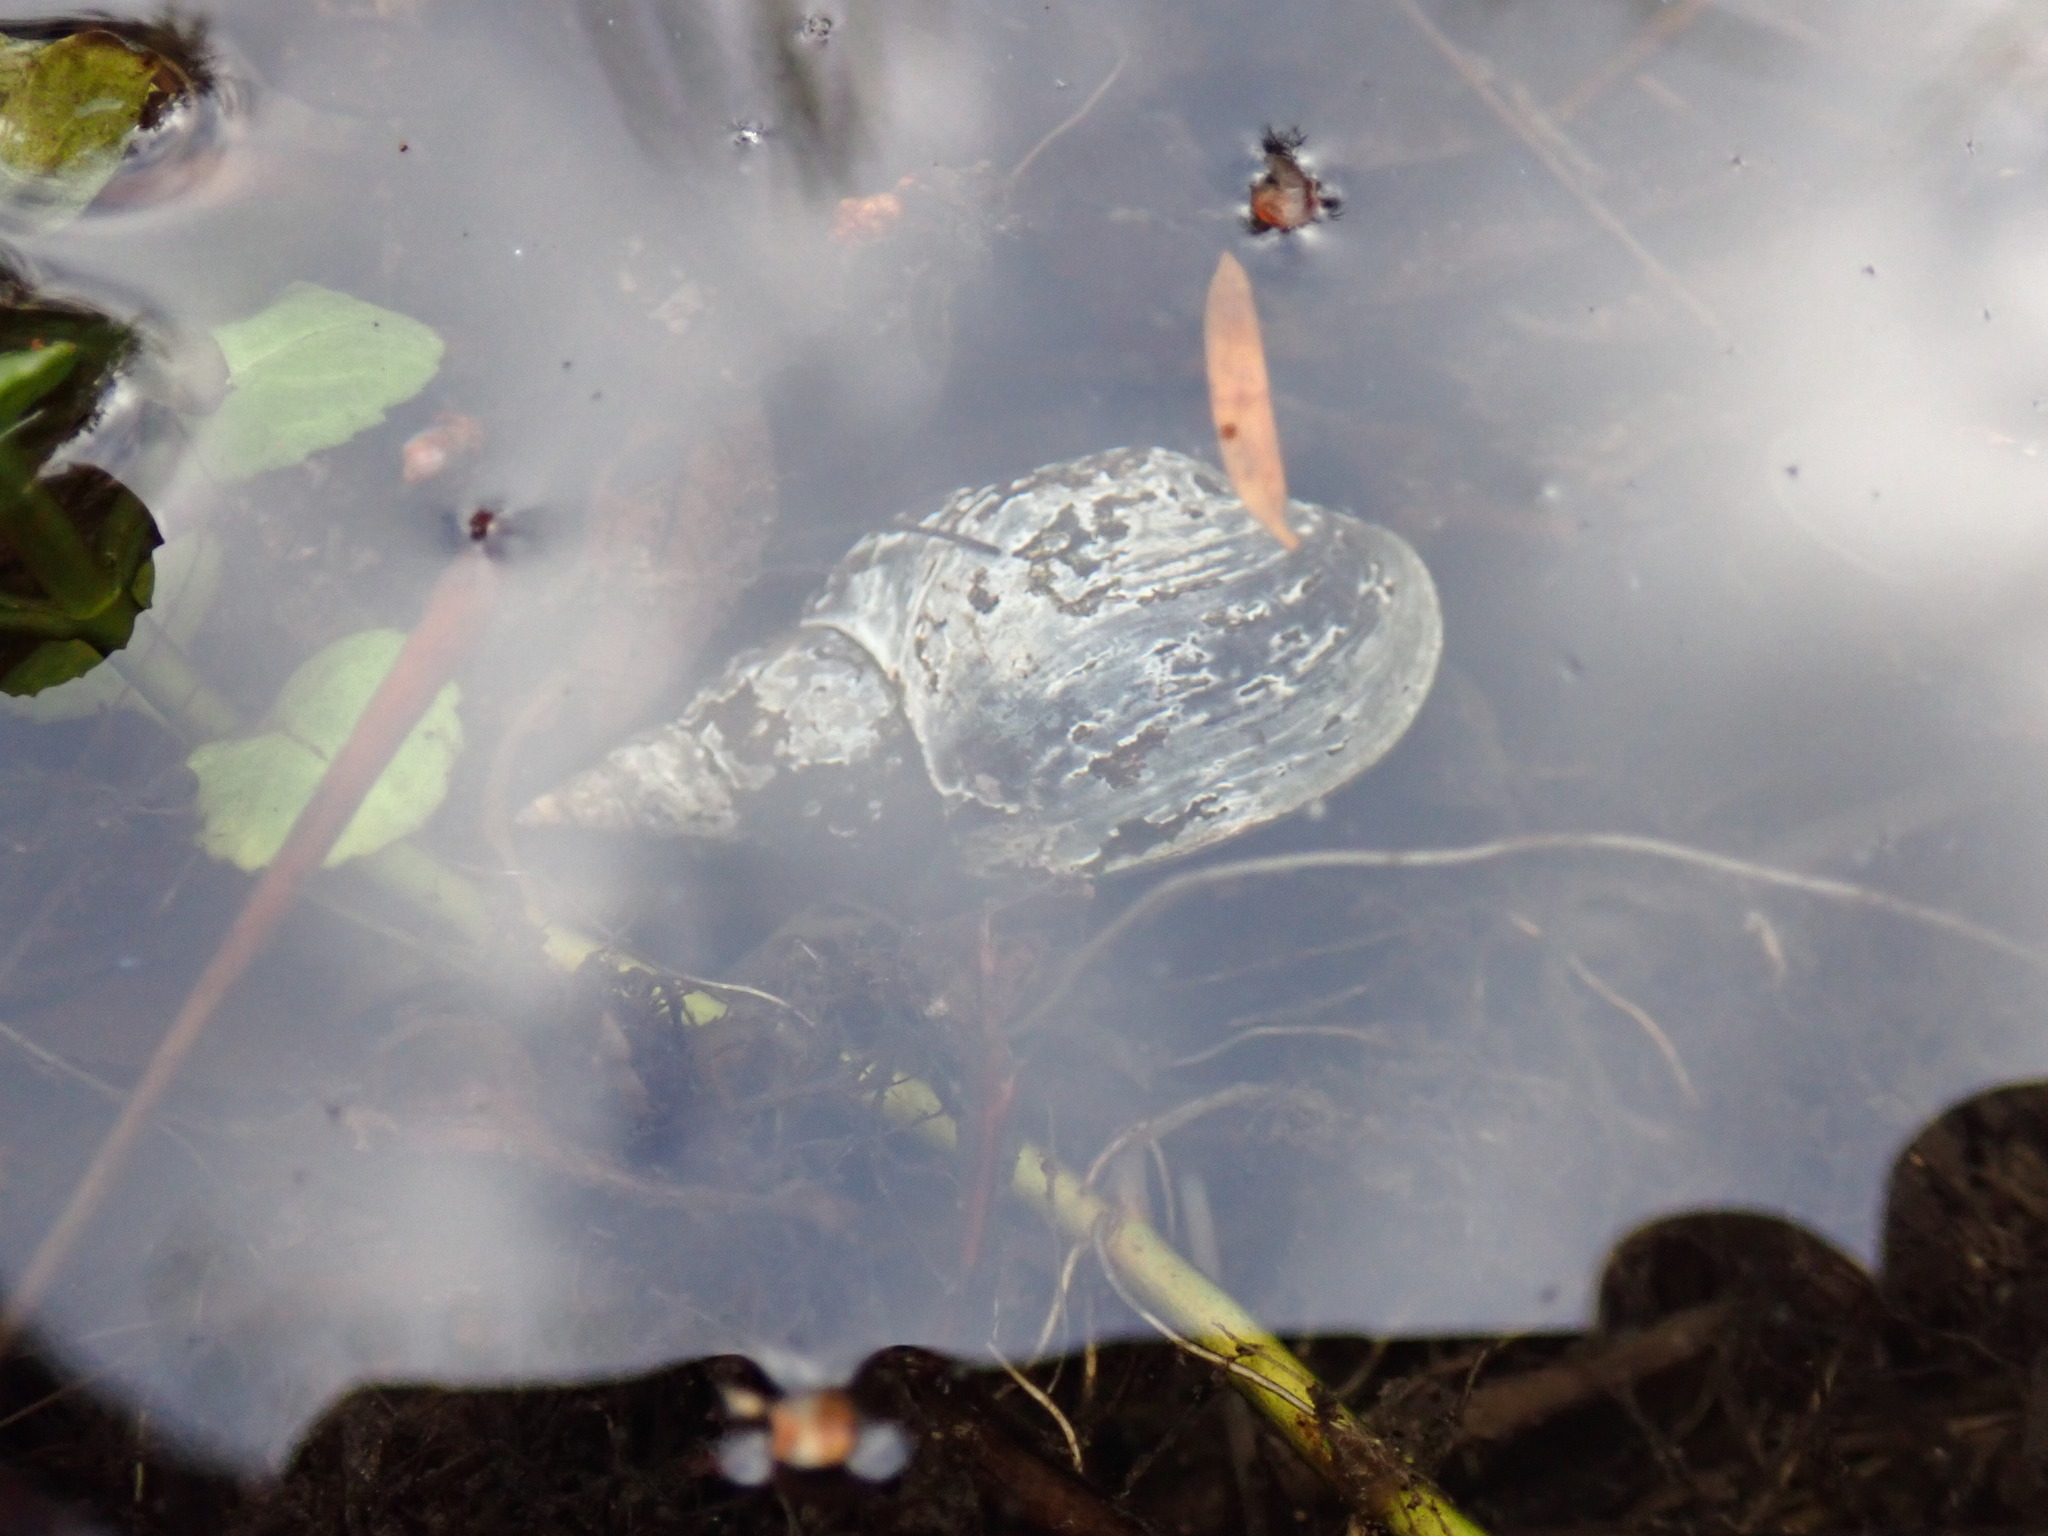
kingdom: Animalia
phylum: Mollusca
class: Gastropoda
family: Lymnaeidae
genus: Lymnaea
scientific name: Lymnaea stagnalis
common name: Great pond snail
